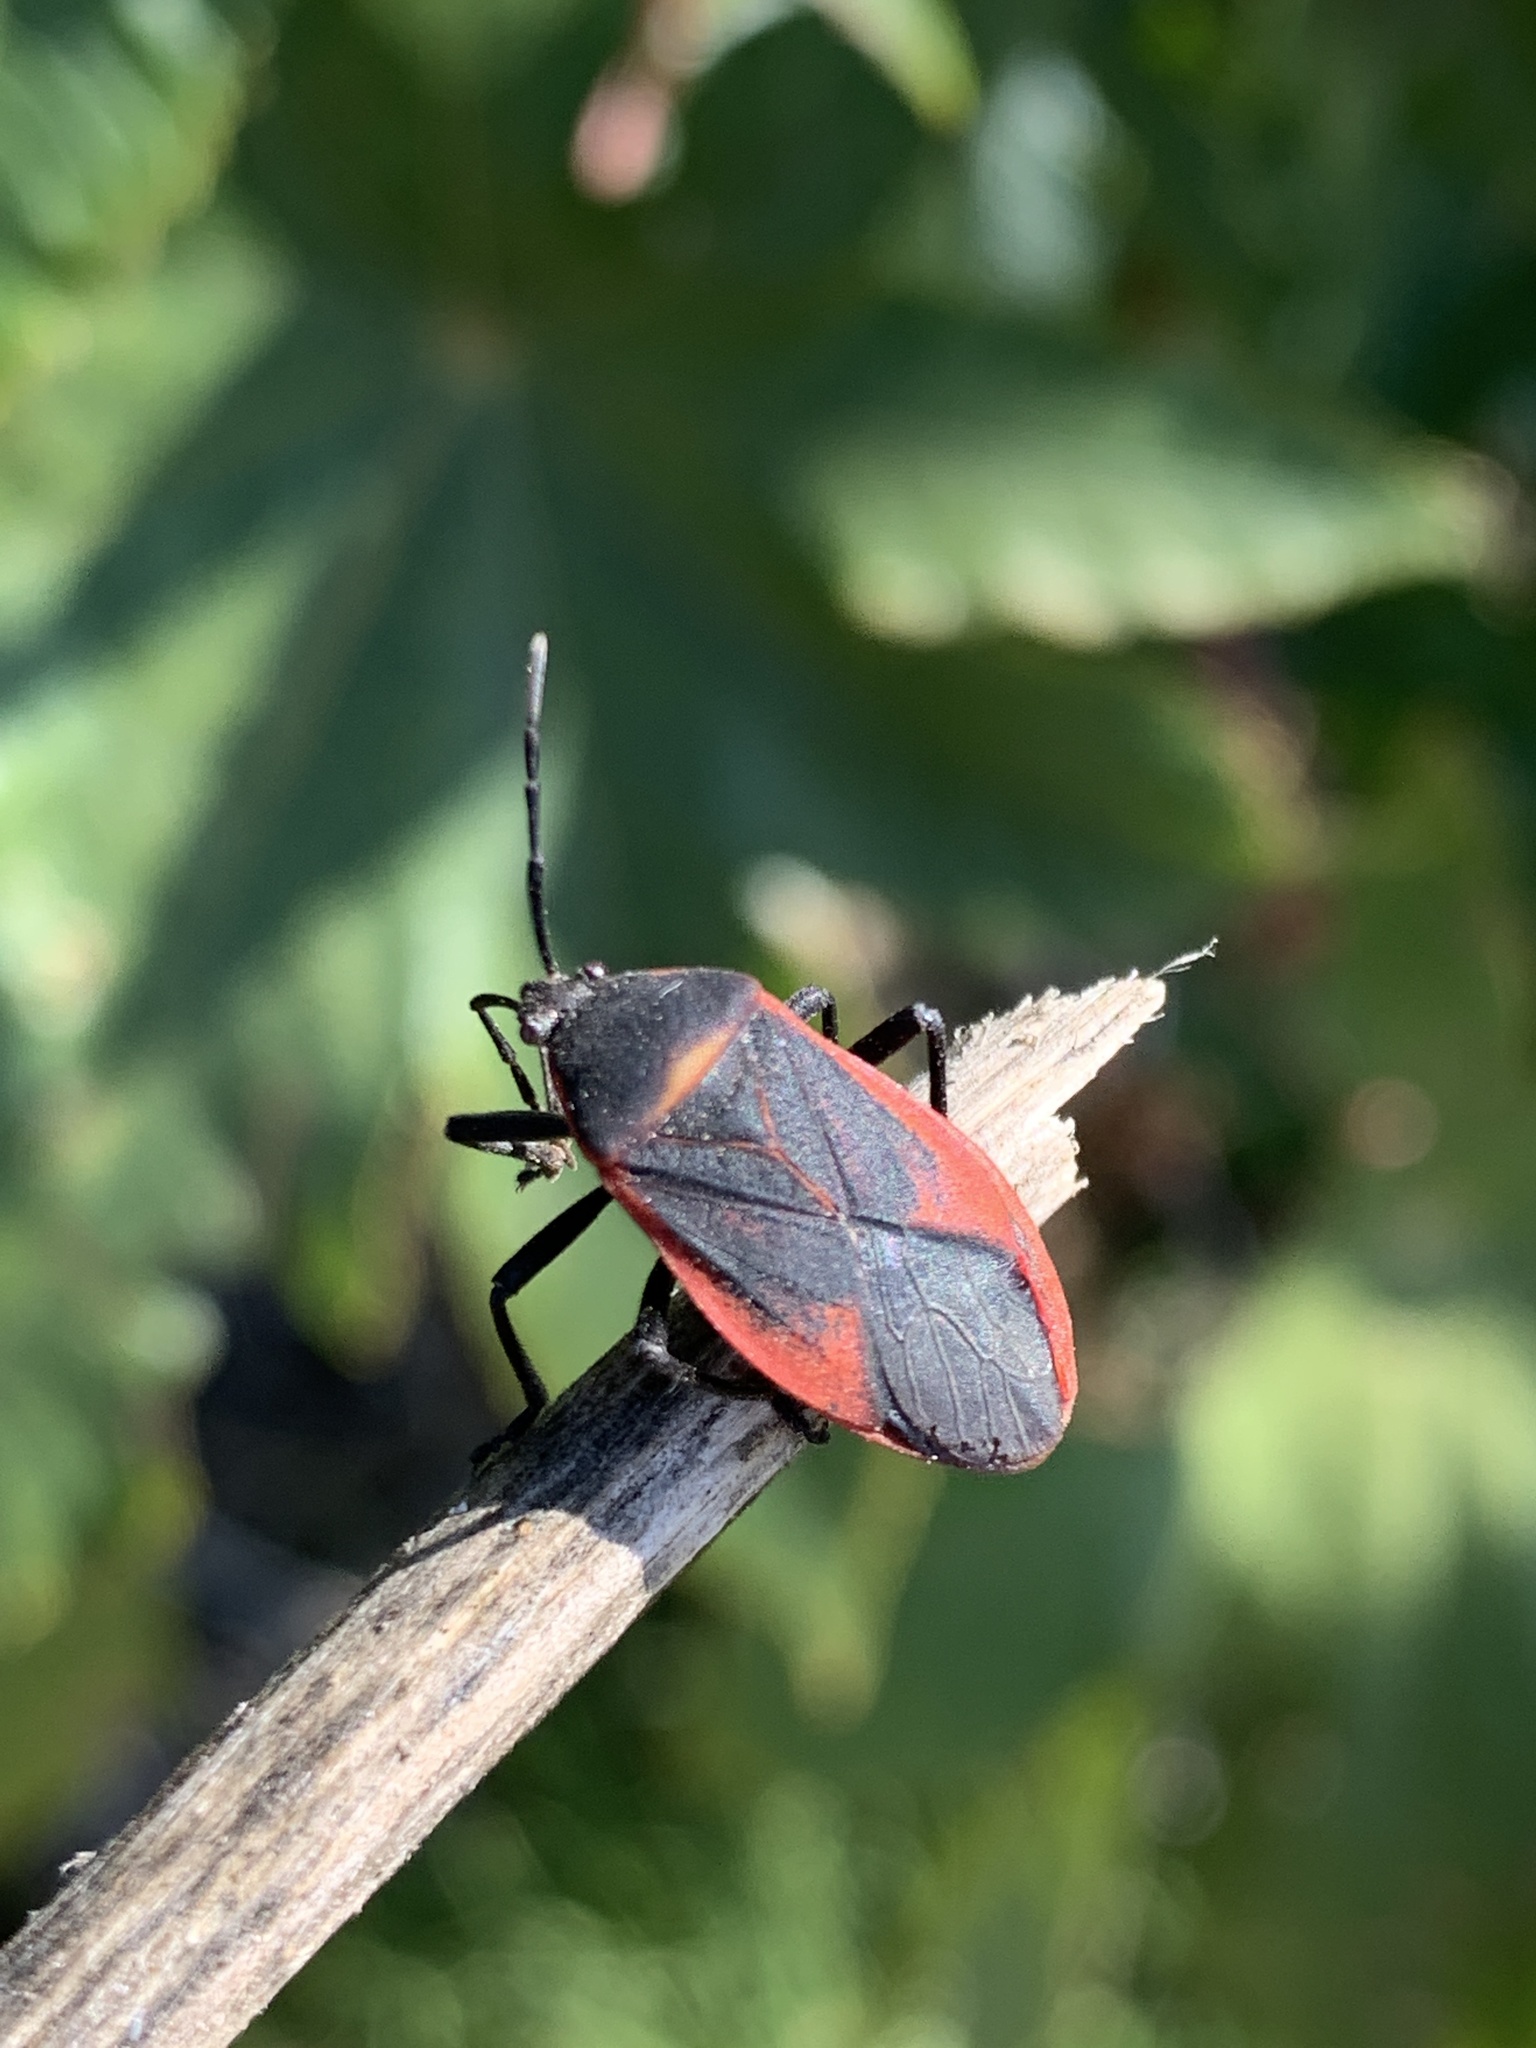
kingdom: Animalia
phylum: Arthropoda
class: Insecta
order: Hemiptera
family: Largidae
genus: Largus
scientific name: Largus rufipennis
